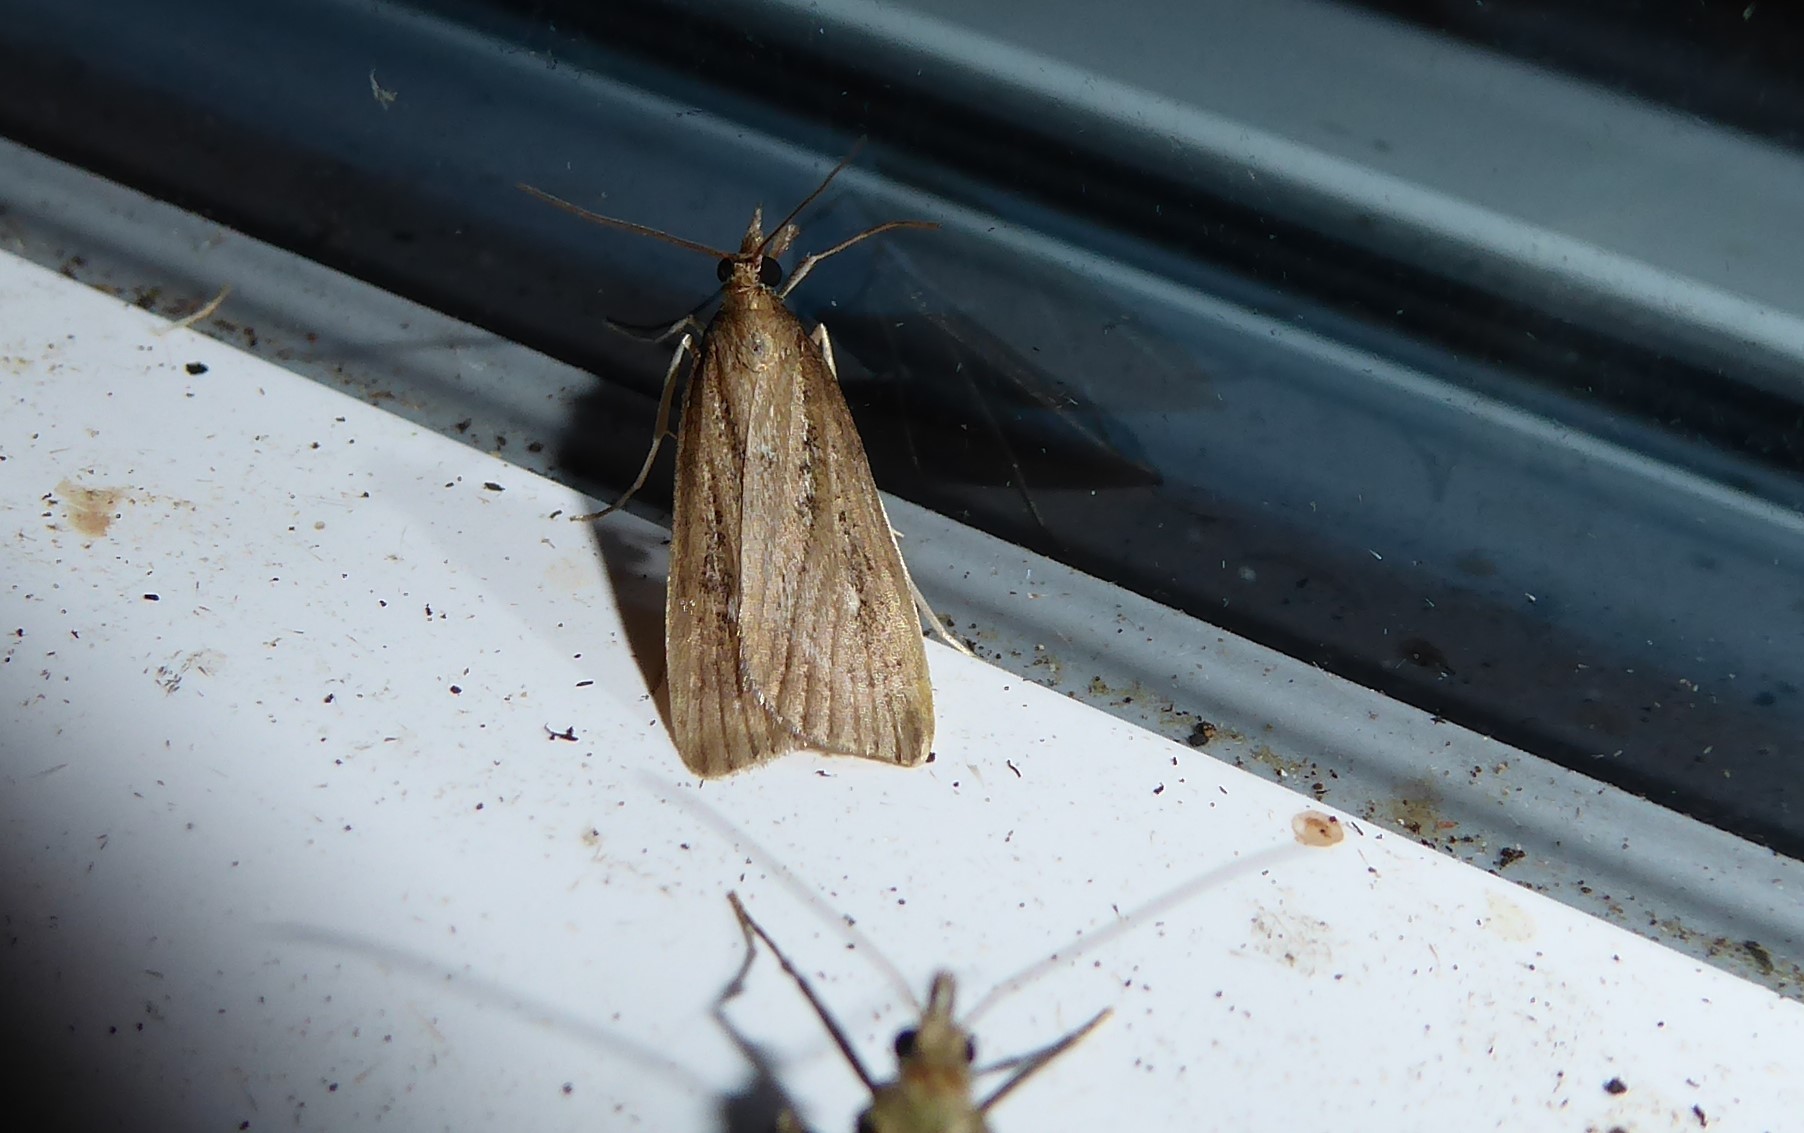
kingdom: Animalia
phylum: Arthropoda
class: Insecta
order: Lepidoptera
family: Crambidae
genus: Eudonia
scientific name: Eudonia octophora
